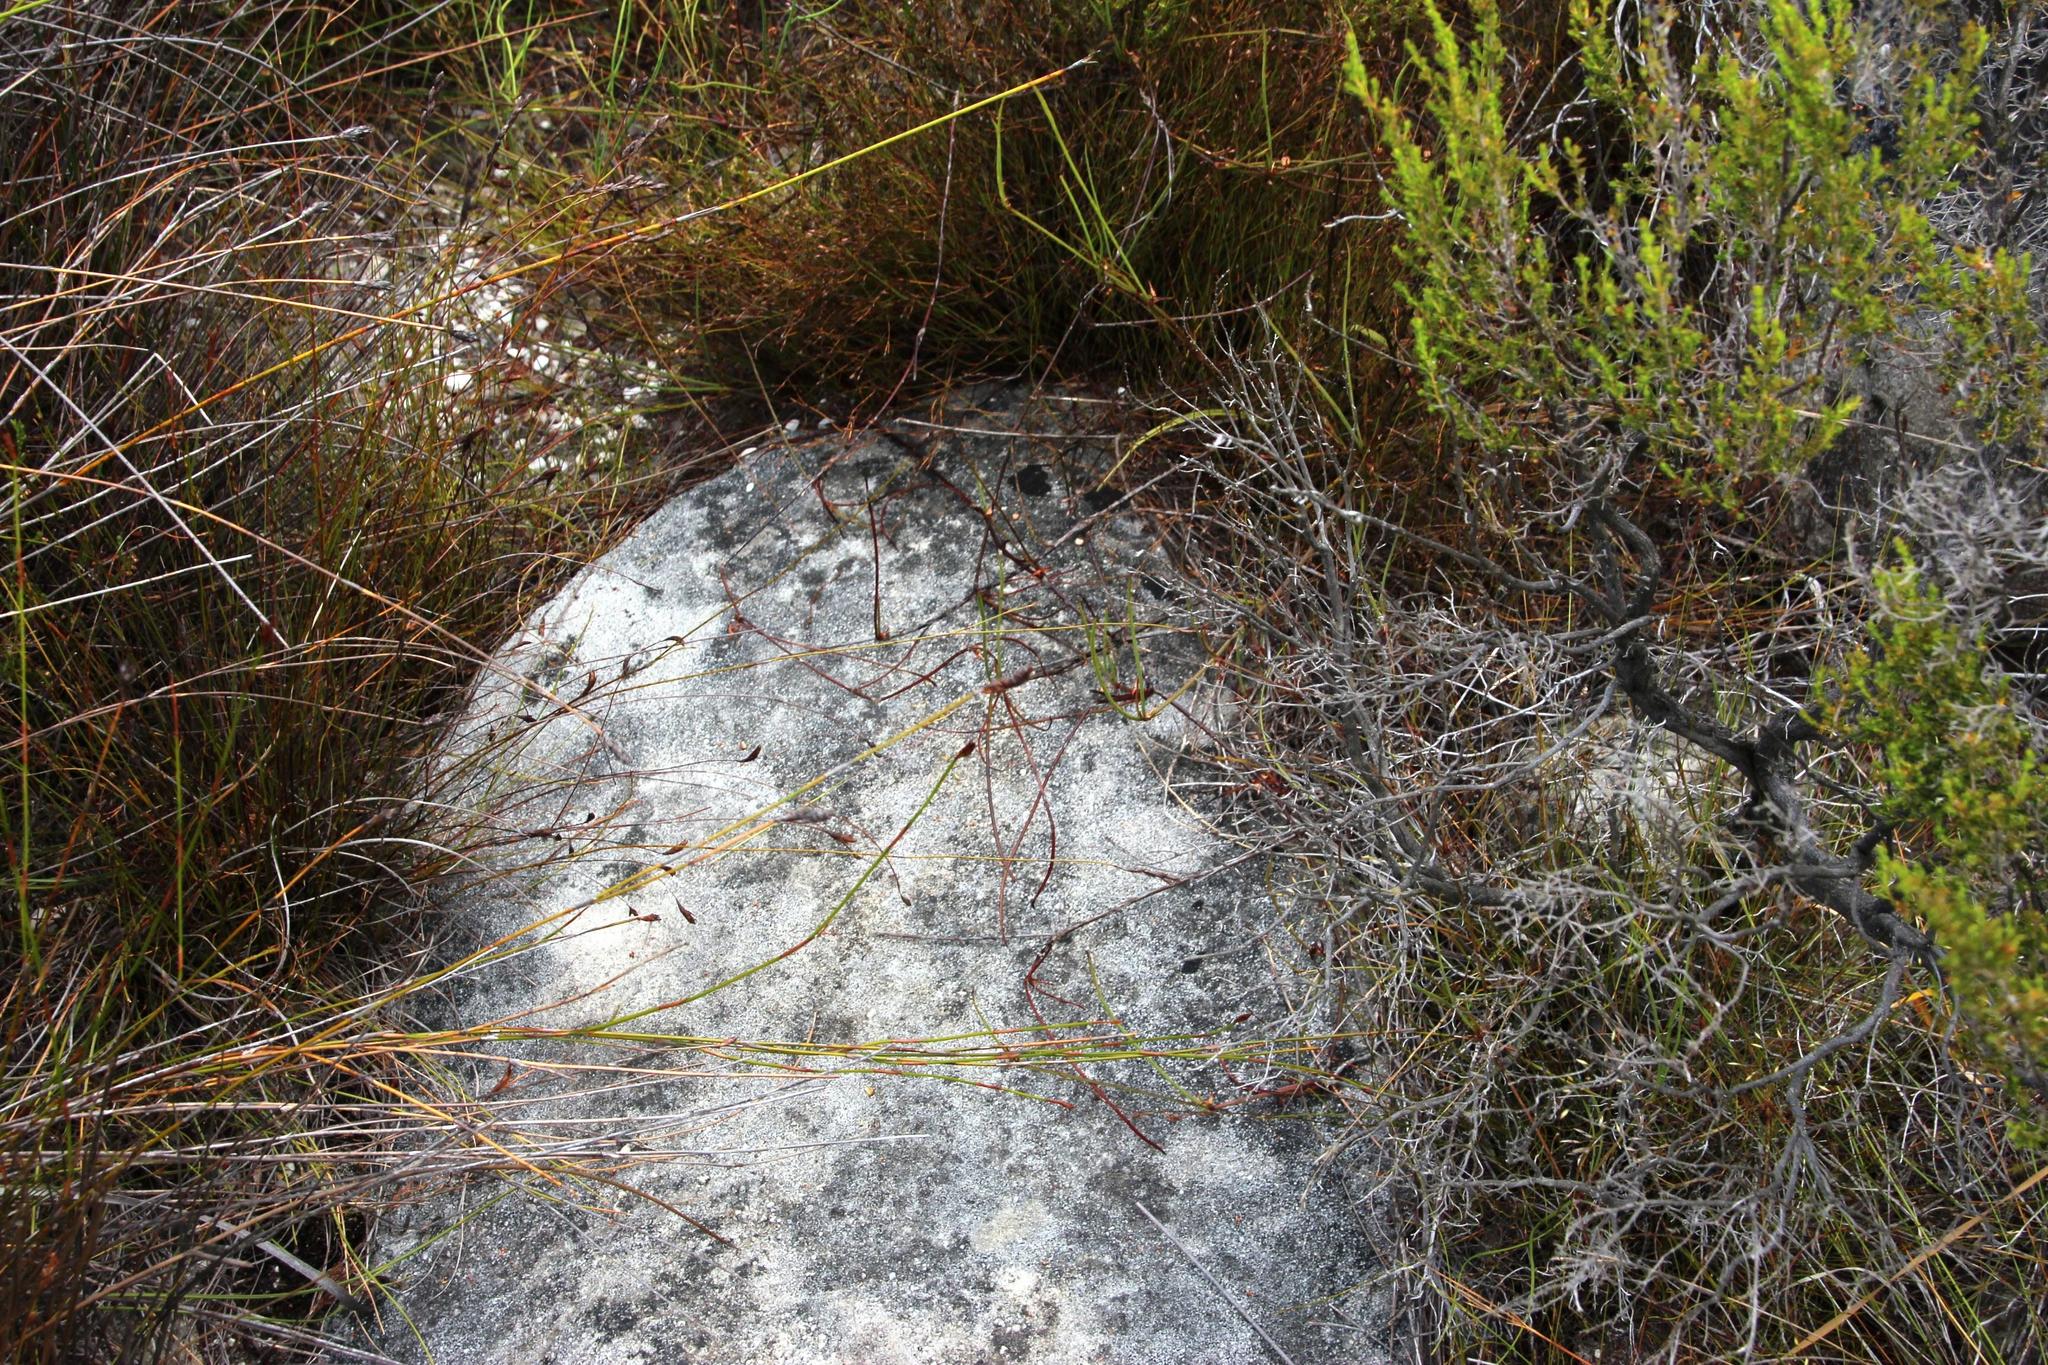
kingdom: Plantae
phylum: Tracheophyta
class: Magnoliopsida
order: Apiales
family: Apiaceae
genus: Centella
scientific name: Centella restioides
